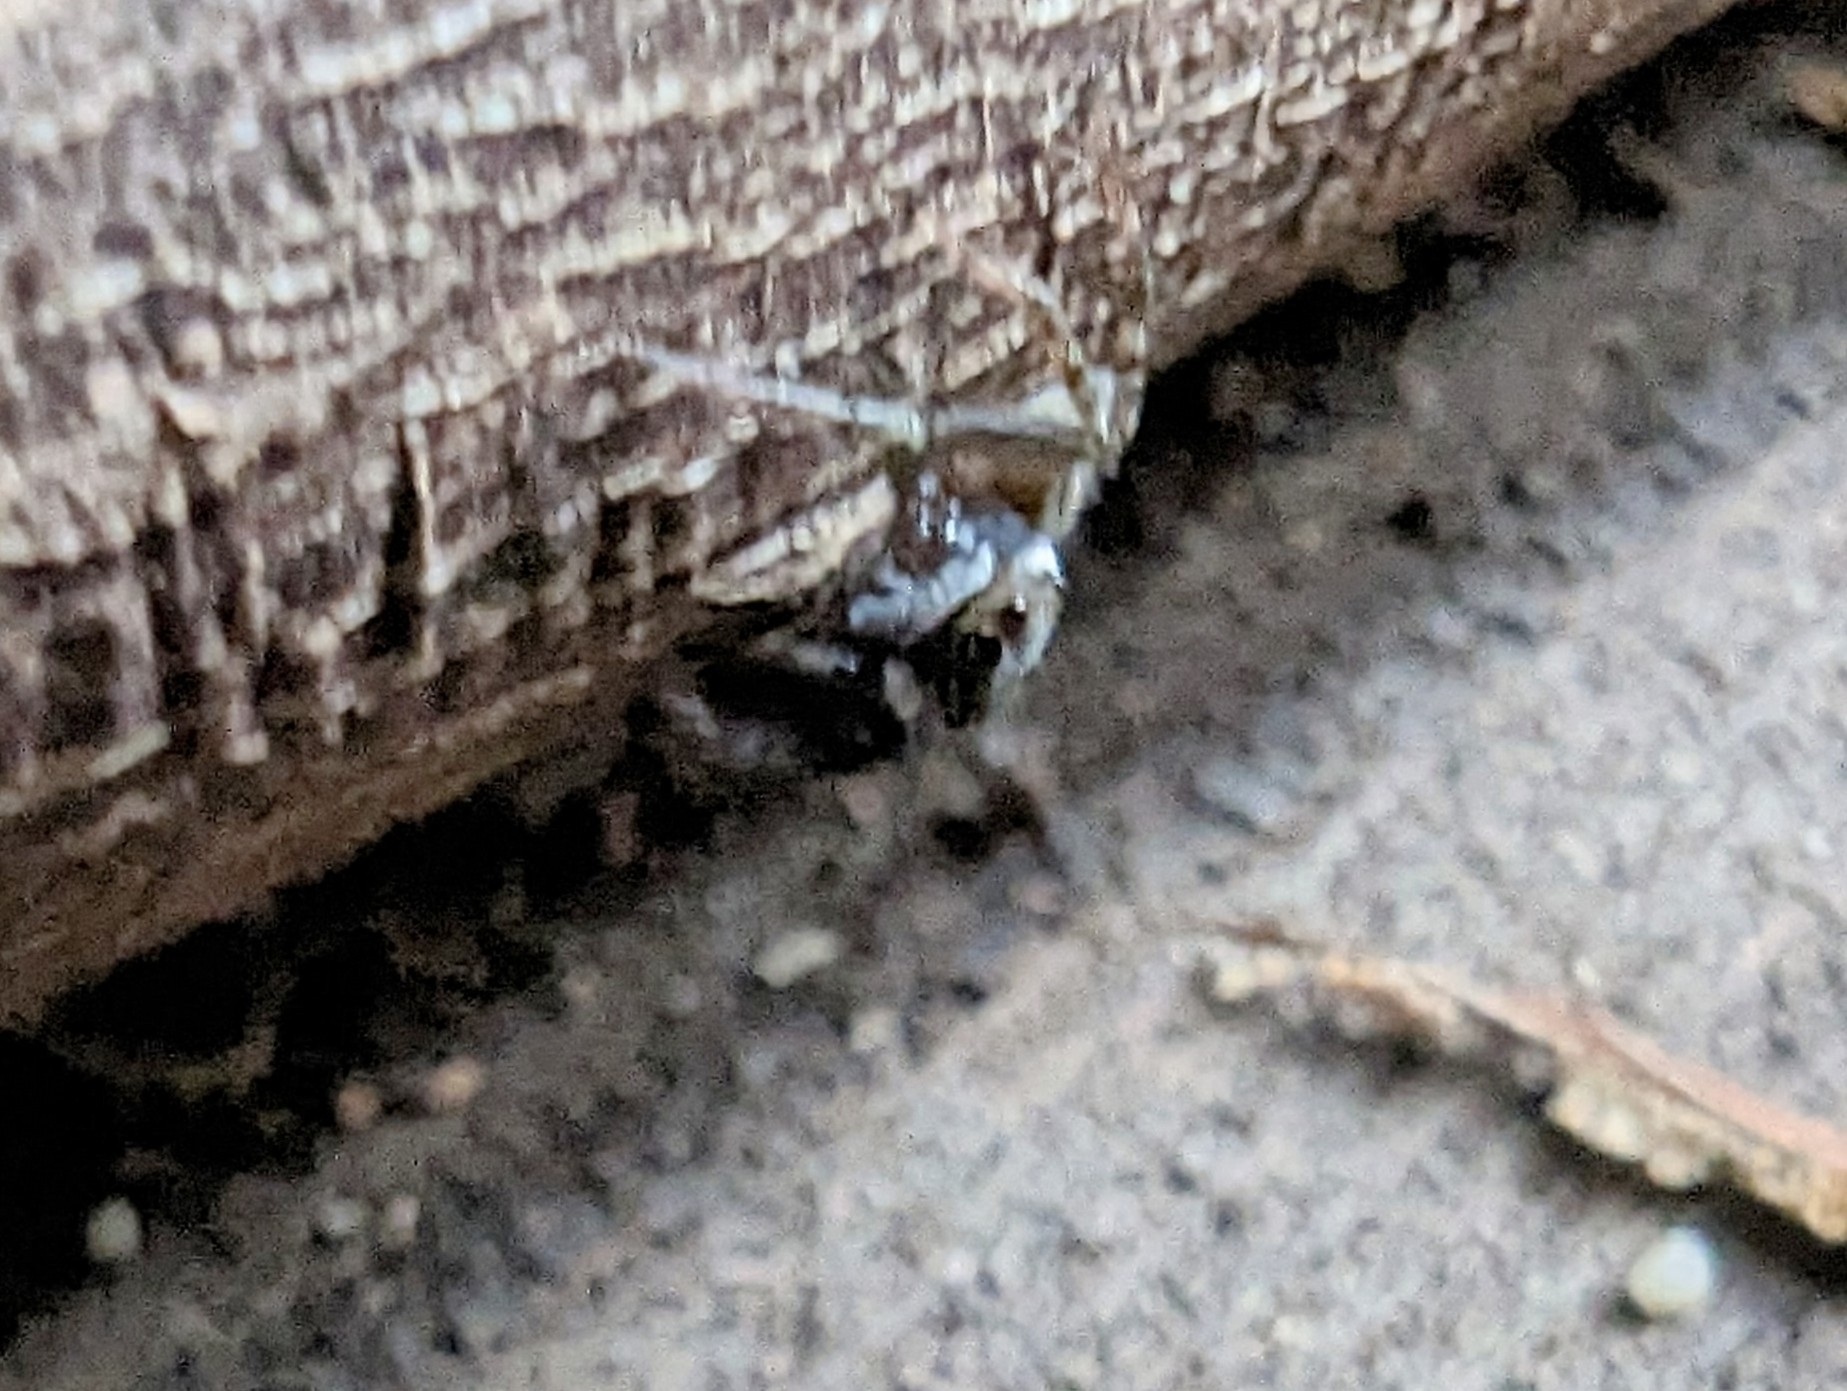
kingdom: Animalia
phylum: Arthropoda
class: Arachnida
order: Araneae
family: Salticidae
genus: Hasarius
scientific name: Hasarius adansoni
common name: Jumping spider
